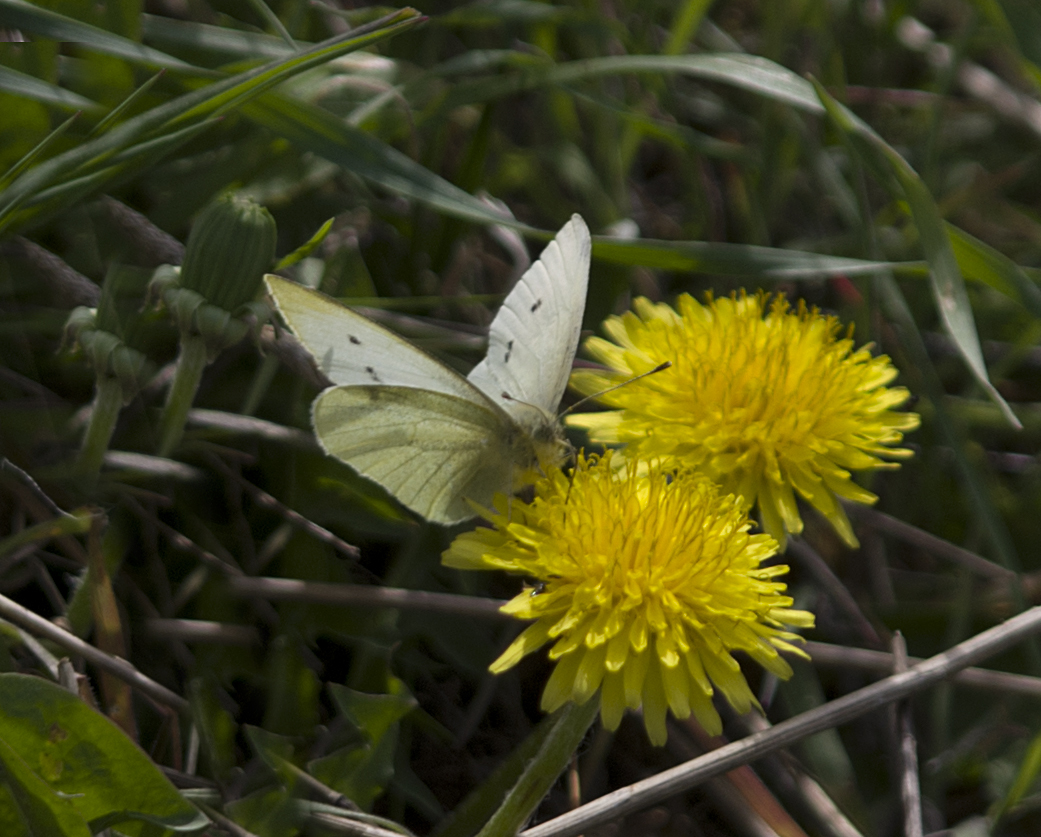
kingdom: Animalia
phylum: Arthropoda
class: Insecta
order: Lepidoptera
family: Pieridae
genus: Pieris
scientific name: Pieris rapae
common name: Small white
